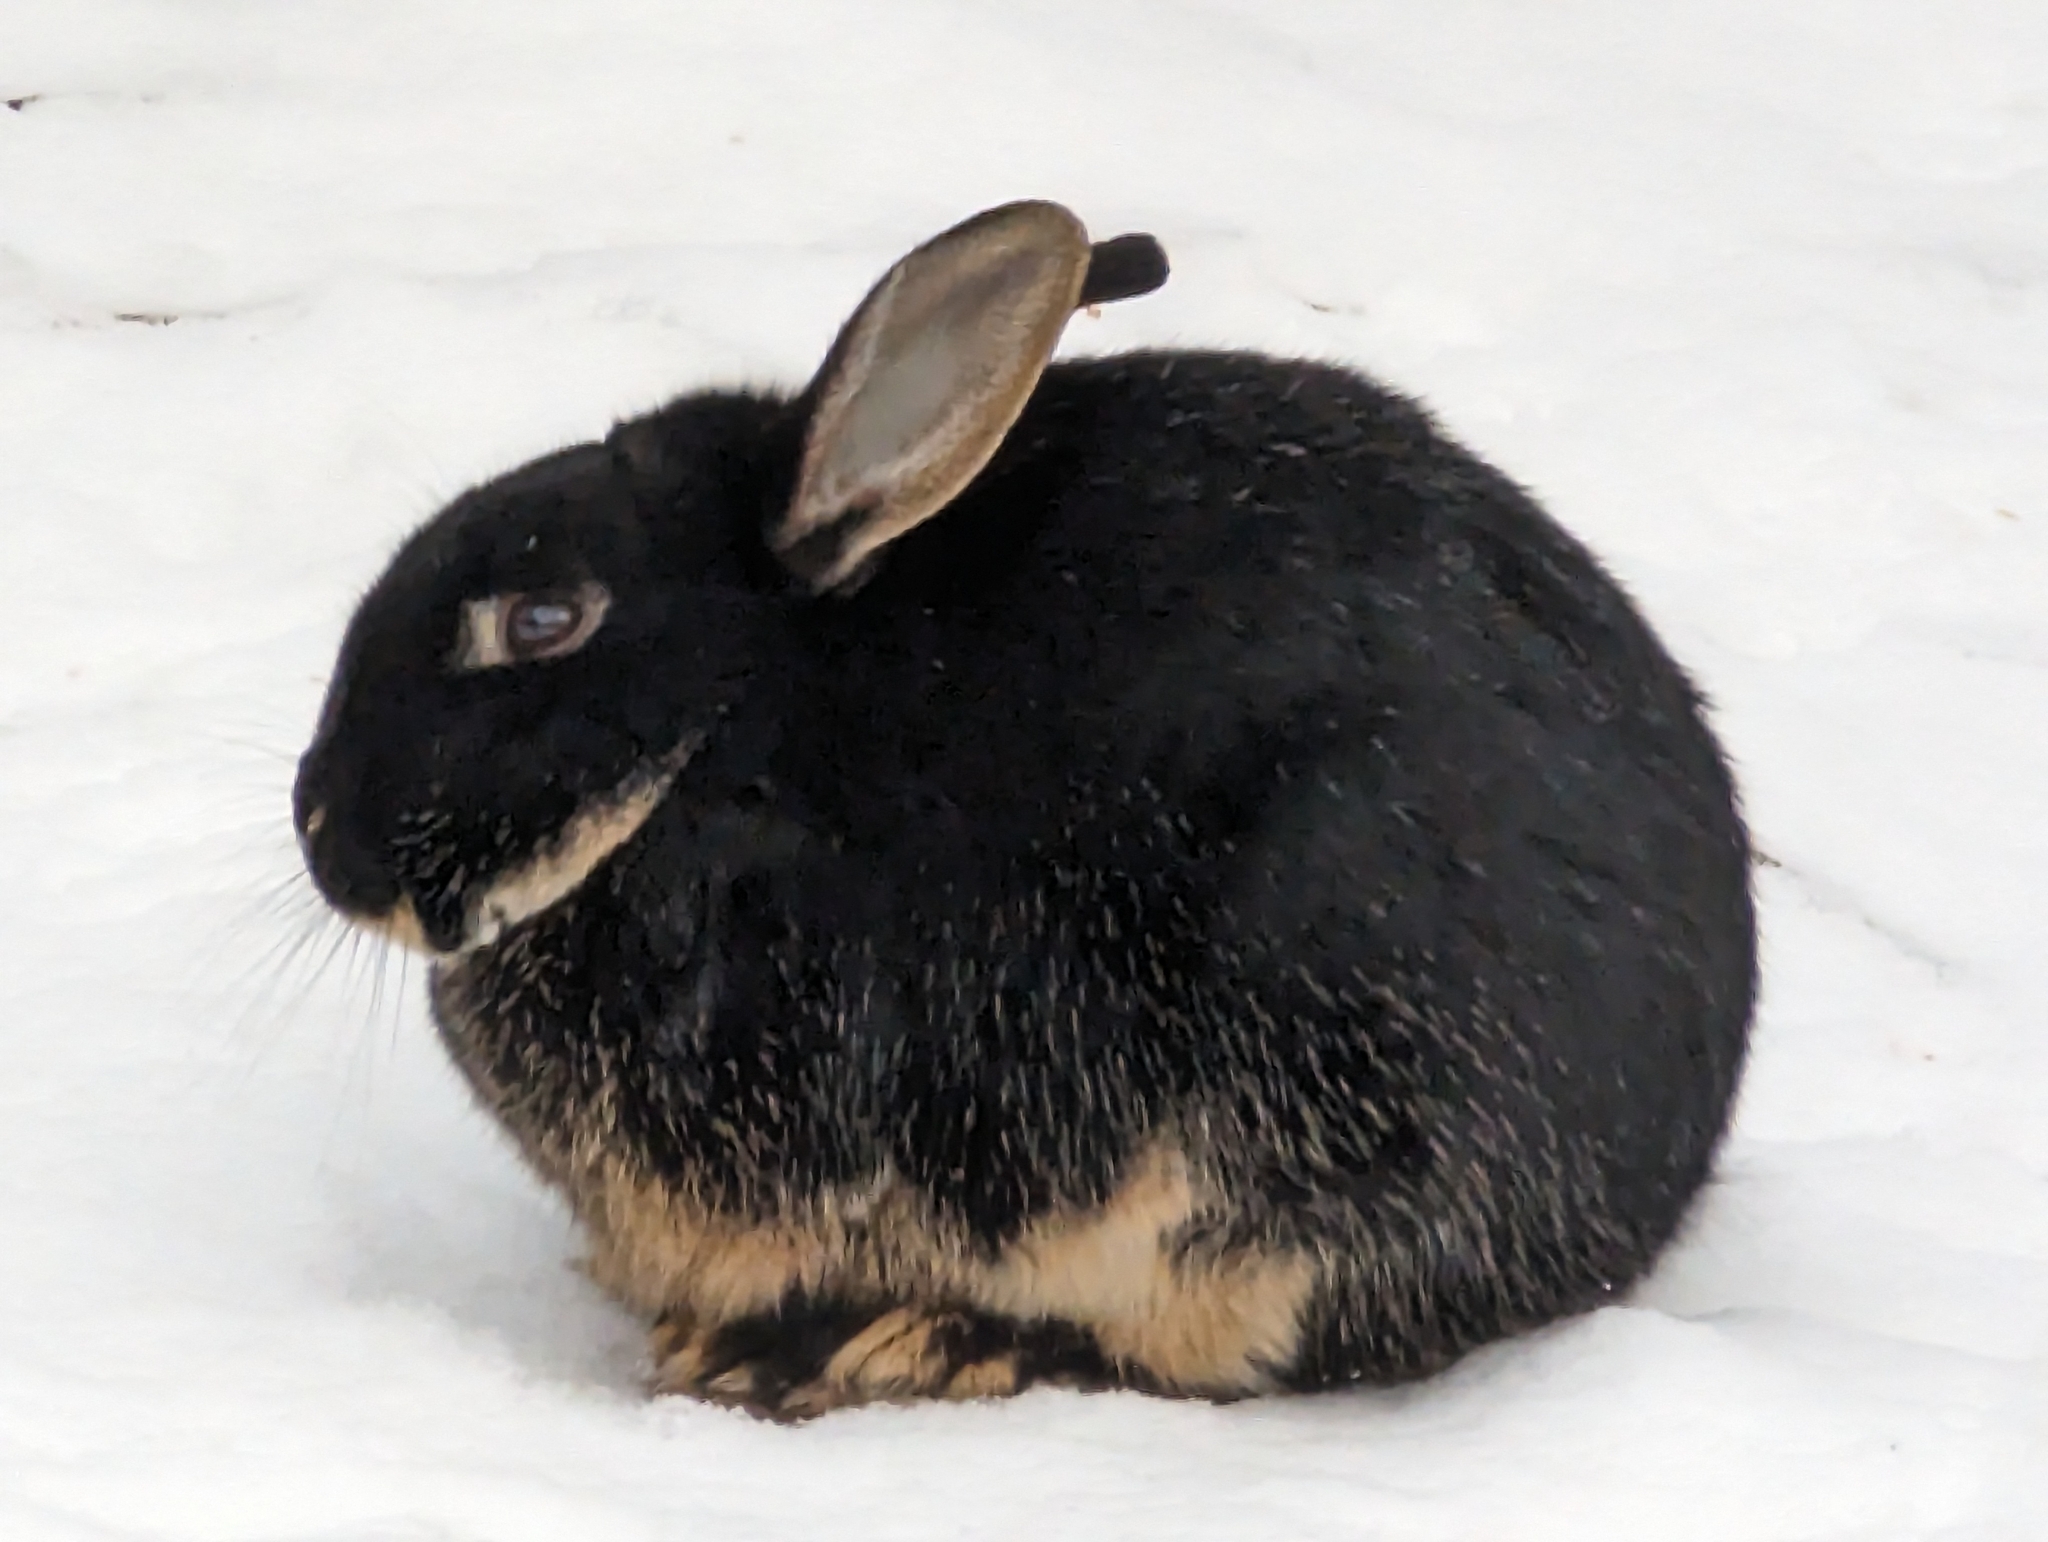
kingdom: Animalia
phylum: Chordata
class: Mammalia
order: Lagomorpha
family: Leporidae
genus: Oryctolagus
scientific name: Oryctolagus cuniculus
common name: European rabbit
